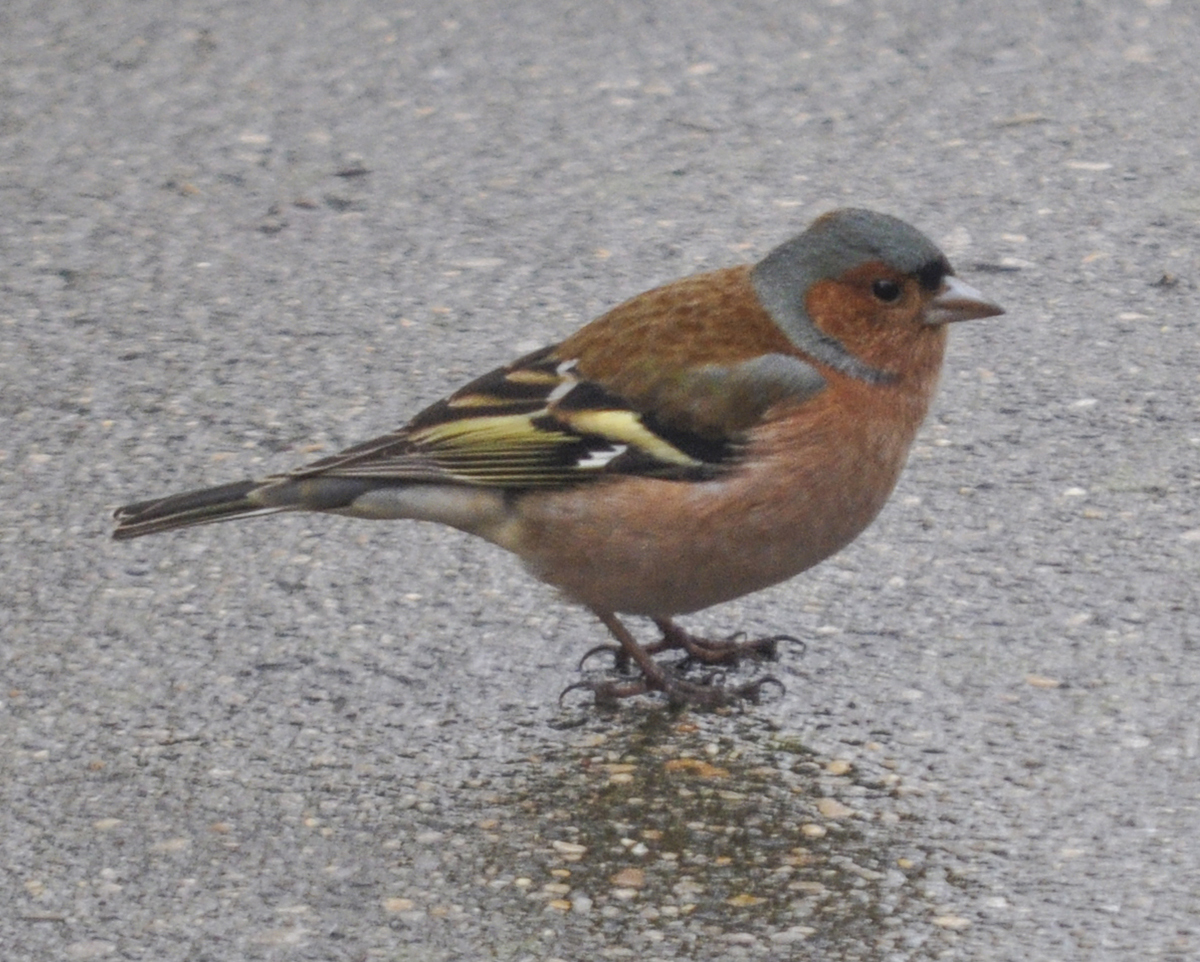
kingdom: Animalia
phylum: Chordata
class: Aves
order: Passeriformes
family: Fringillidae
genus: Fringilla
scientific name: Fringilla coelebs
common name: Common chaffinch
